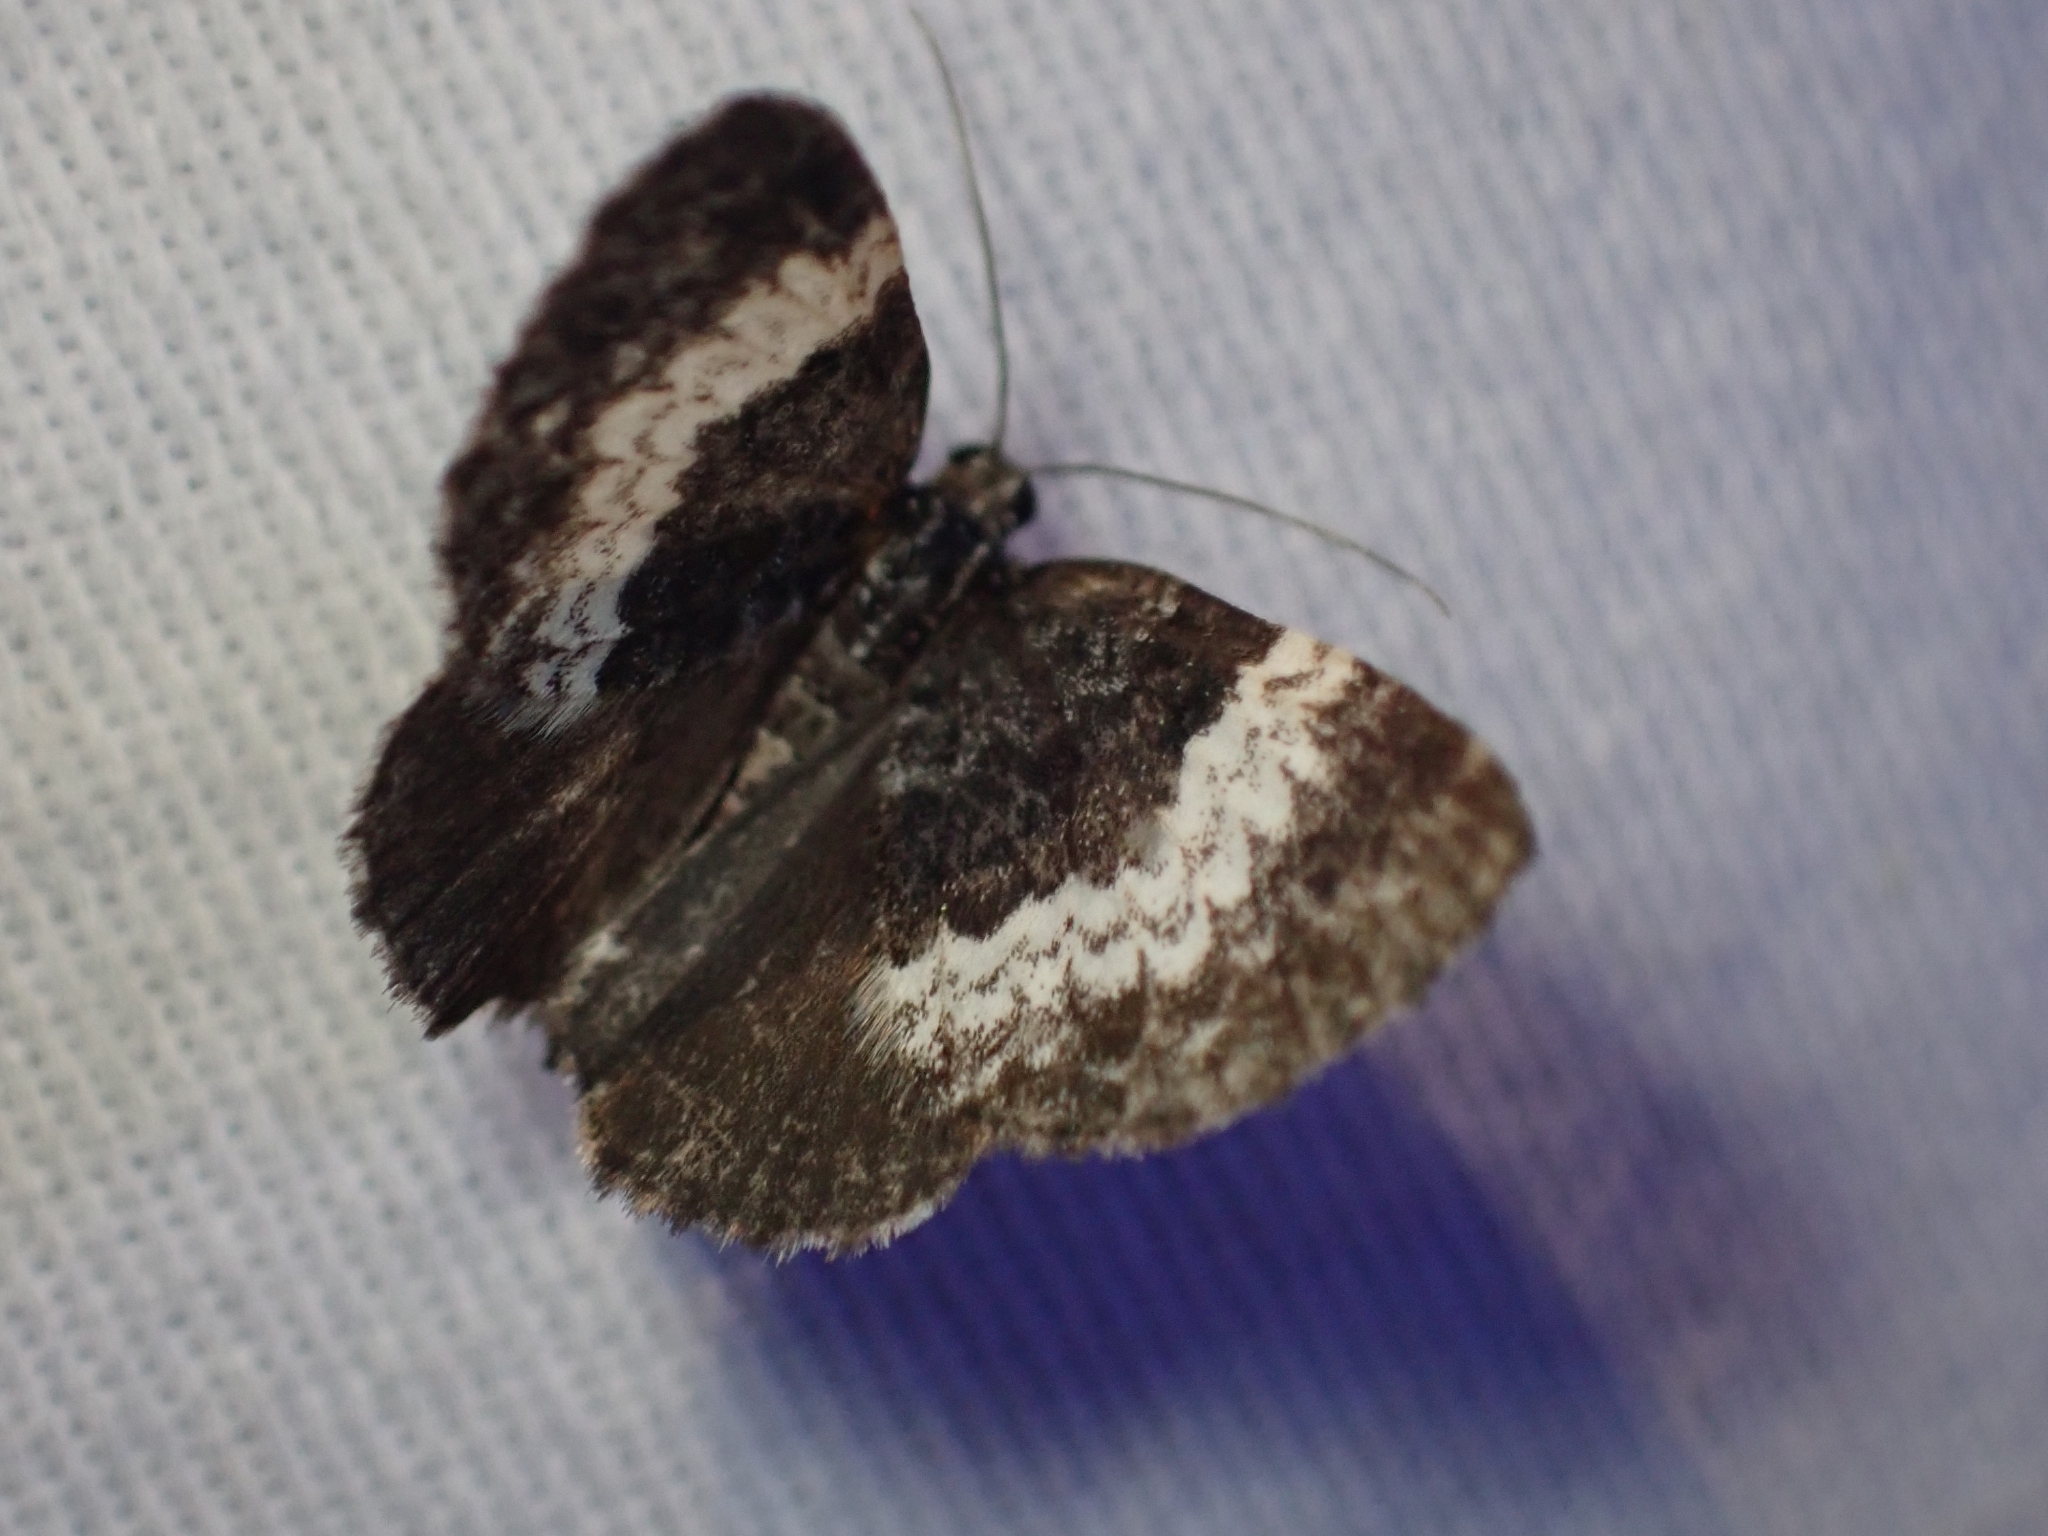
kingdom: Animalia
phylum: Arthropoda
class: Insecta
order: Lepidoptera
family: Geometridae
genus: Spargania
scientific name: Spargania luctuata
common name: White-banded carpet
